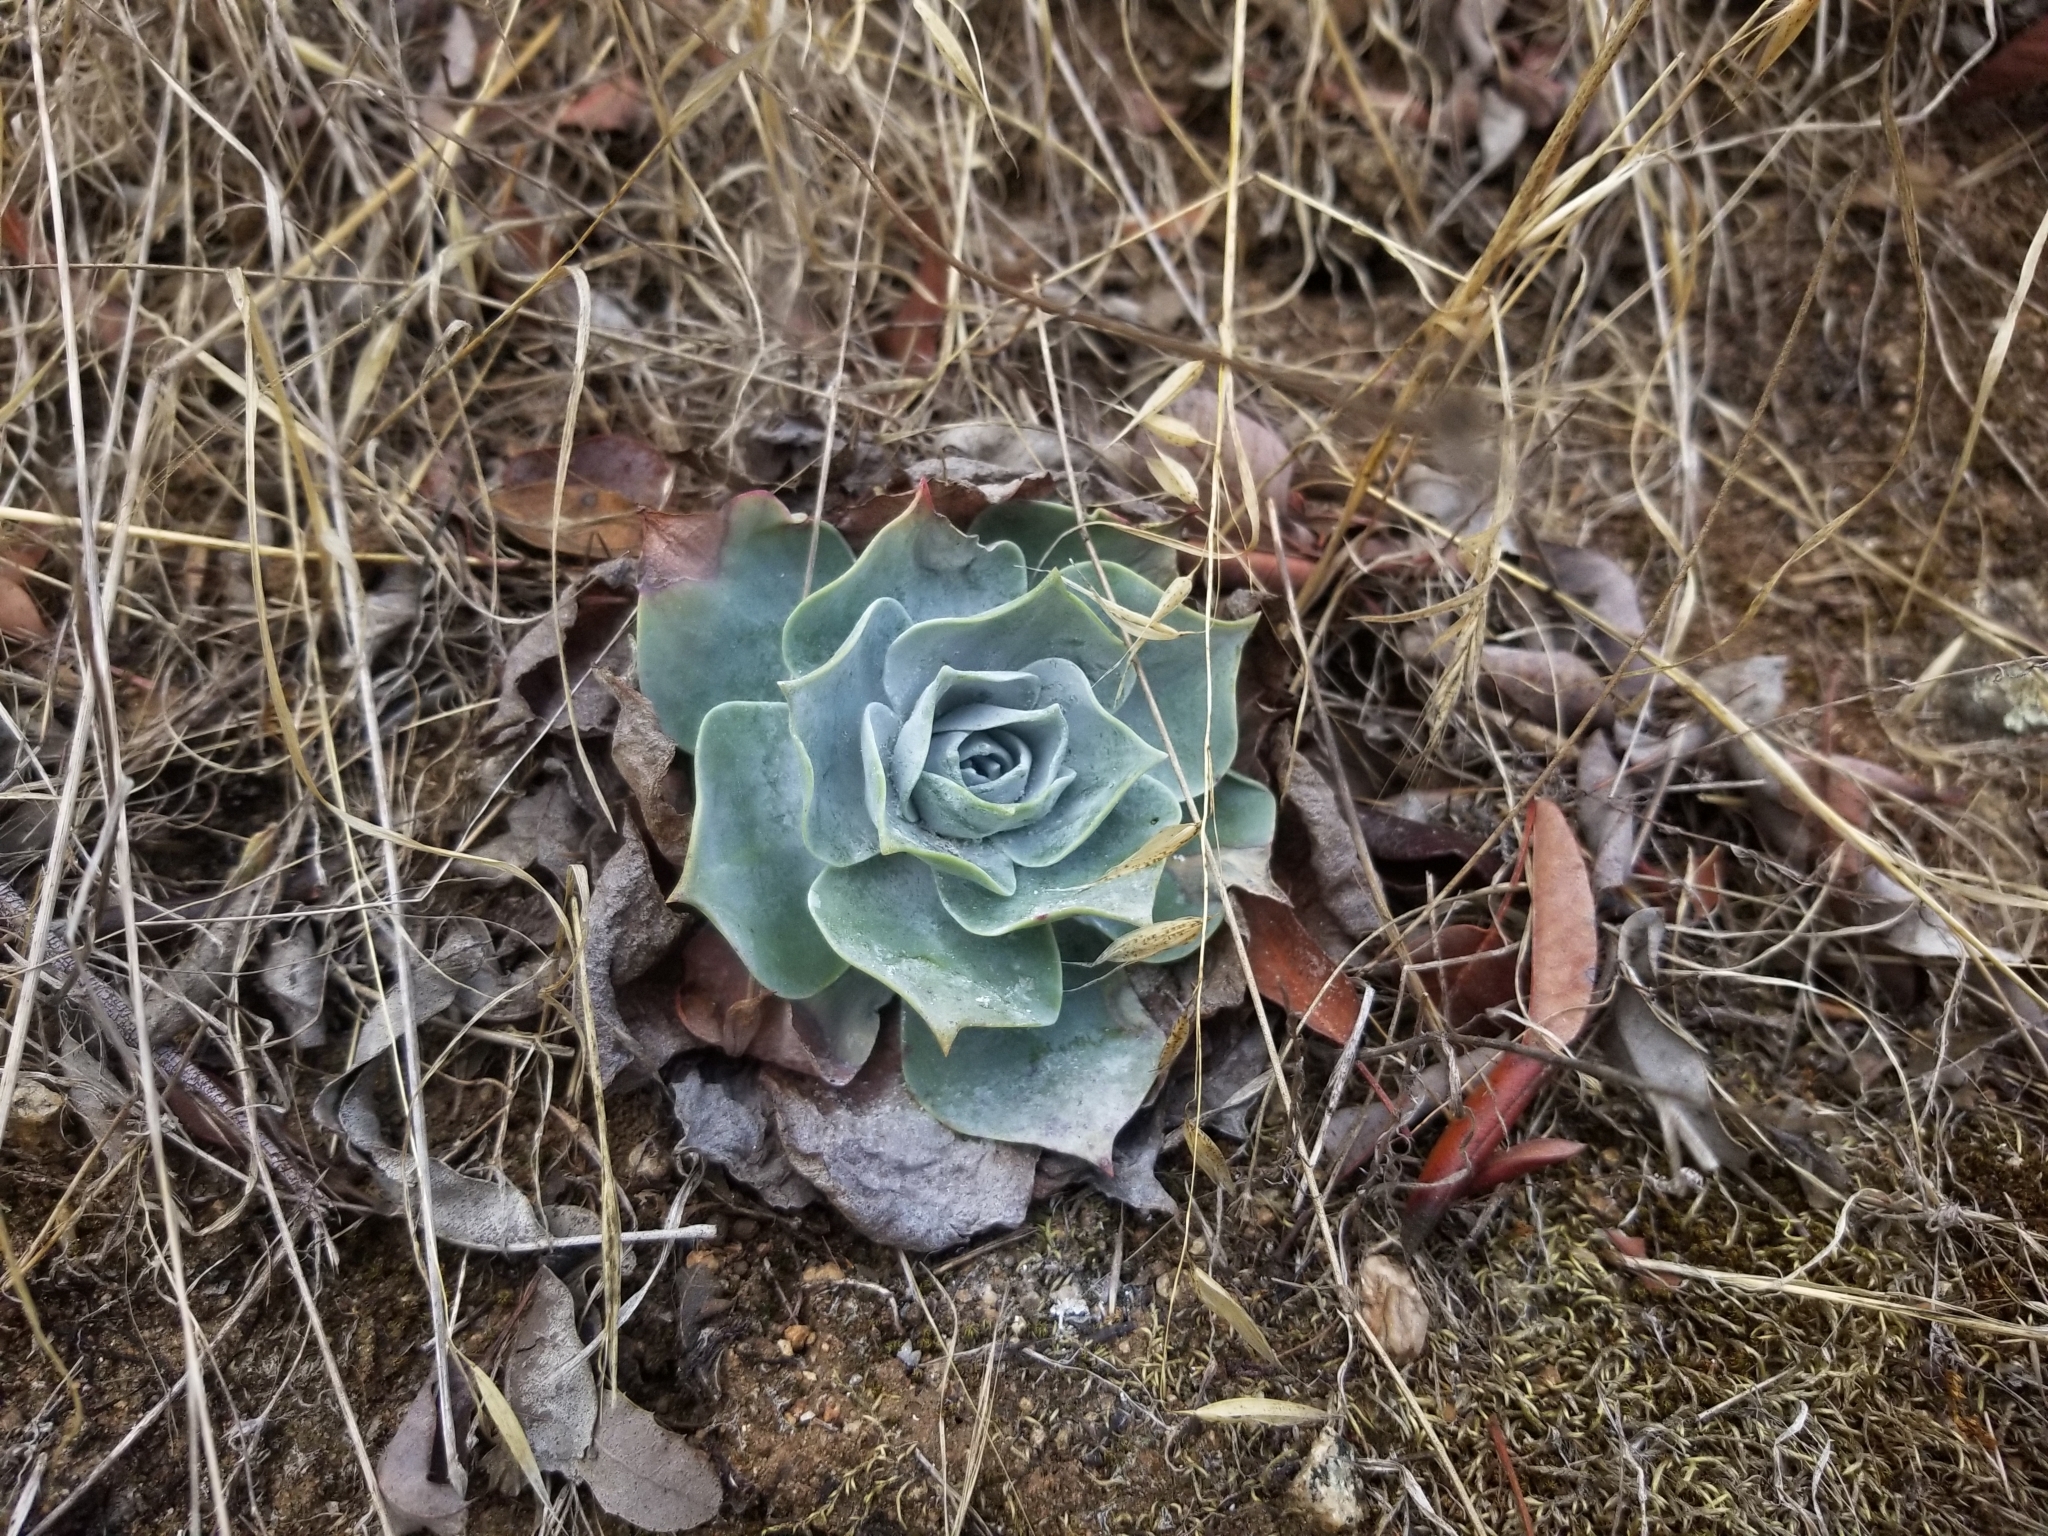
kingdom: Plantae
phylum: Tracheophyta
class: Magnoliopsida
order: Saxifragales
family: Crassulaceae
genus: Dudleya
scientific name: Dudleya pulverulenta
